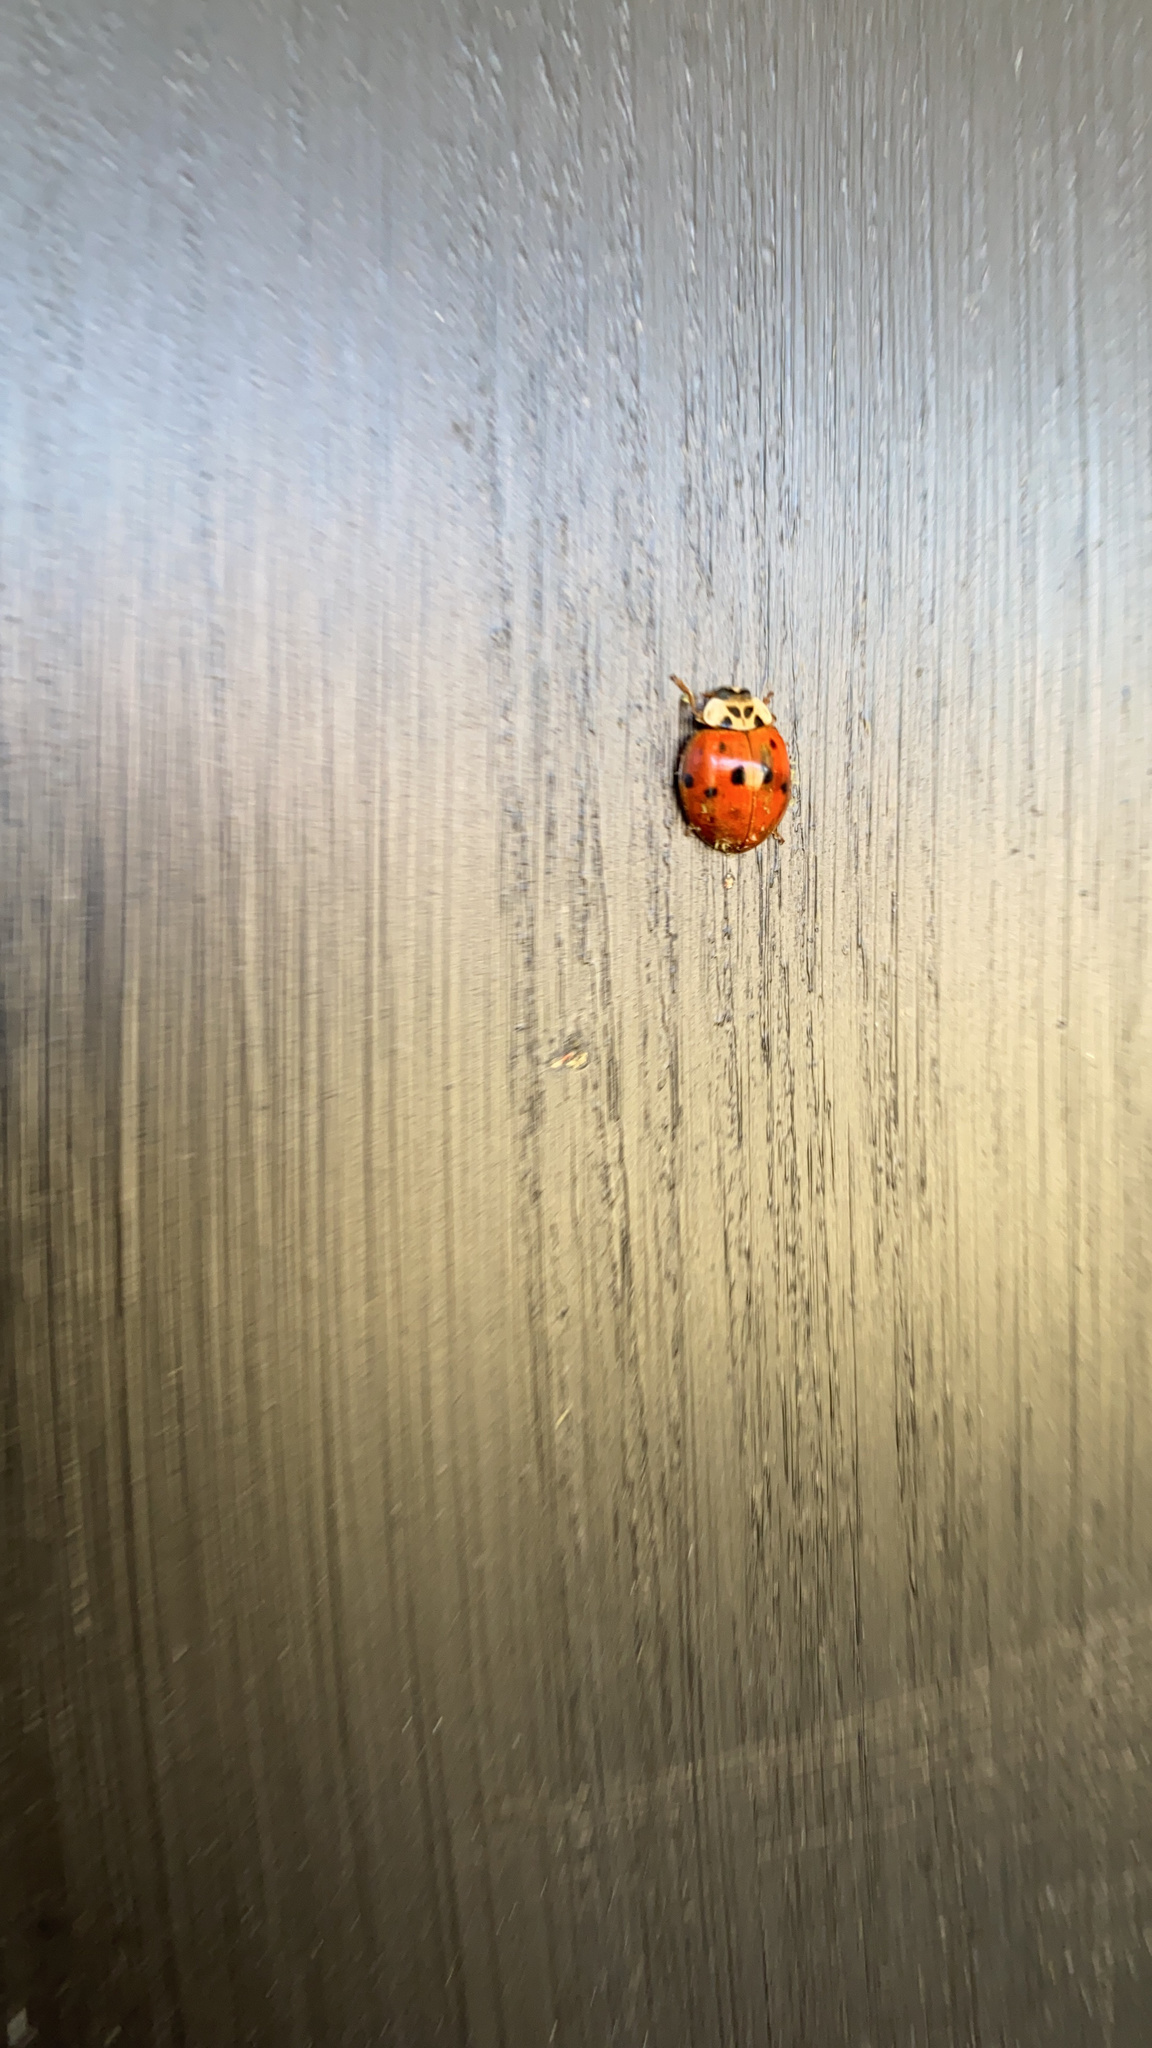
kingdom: Fungi
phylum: Ascomycota
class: Laboulbeniomycetes
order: Laboulbeniales
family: Laboulbeniaceae
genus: Hesperomyces
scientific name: Hesperomyces harmoniae
